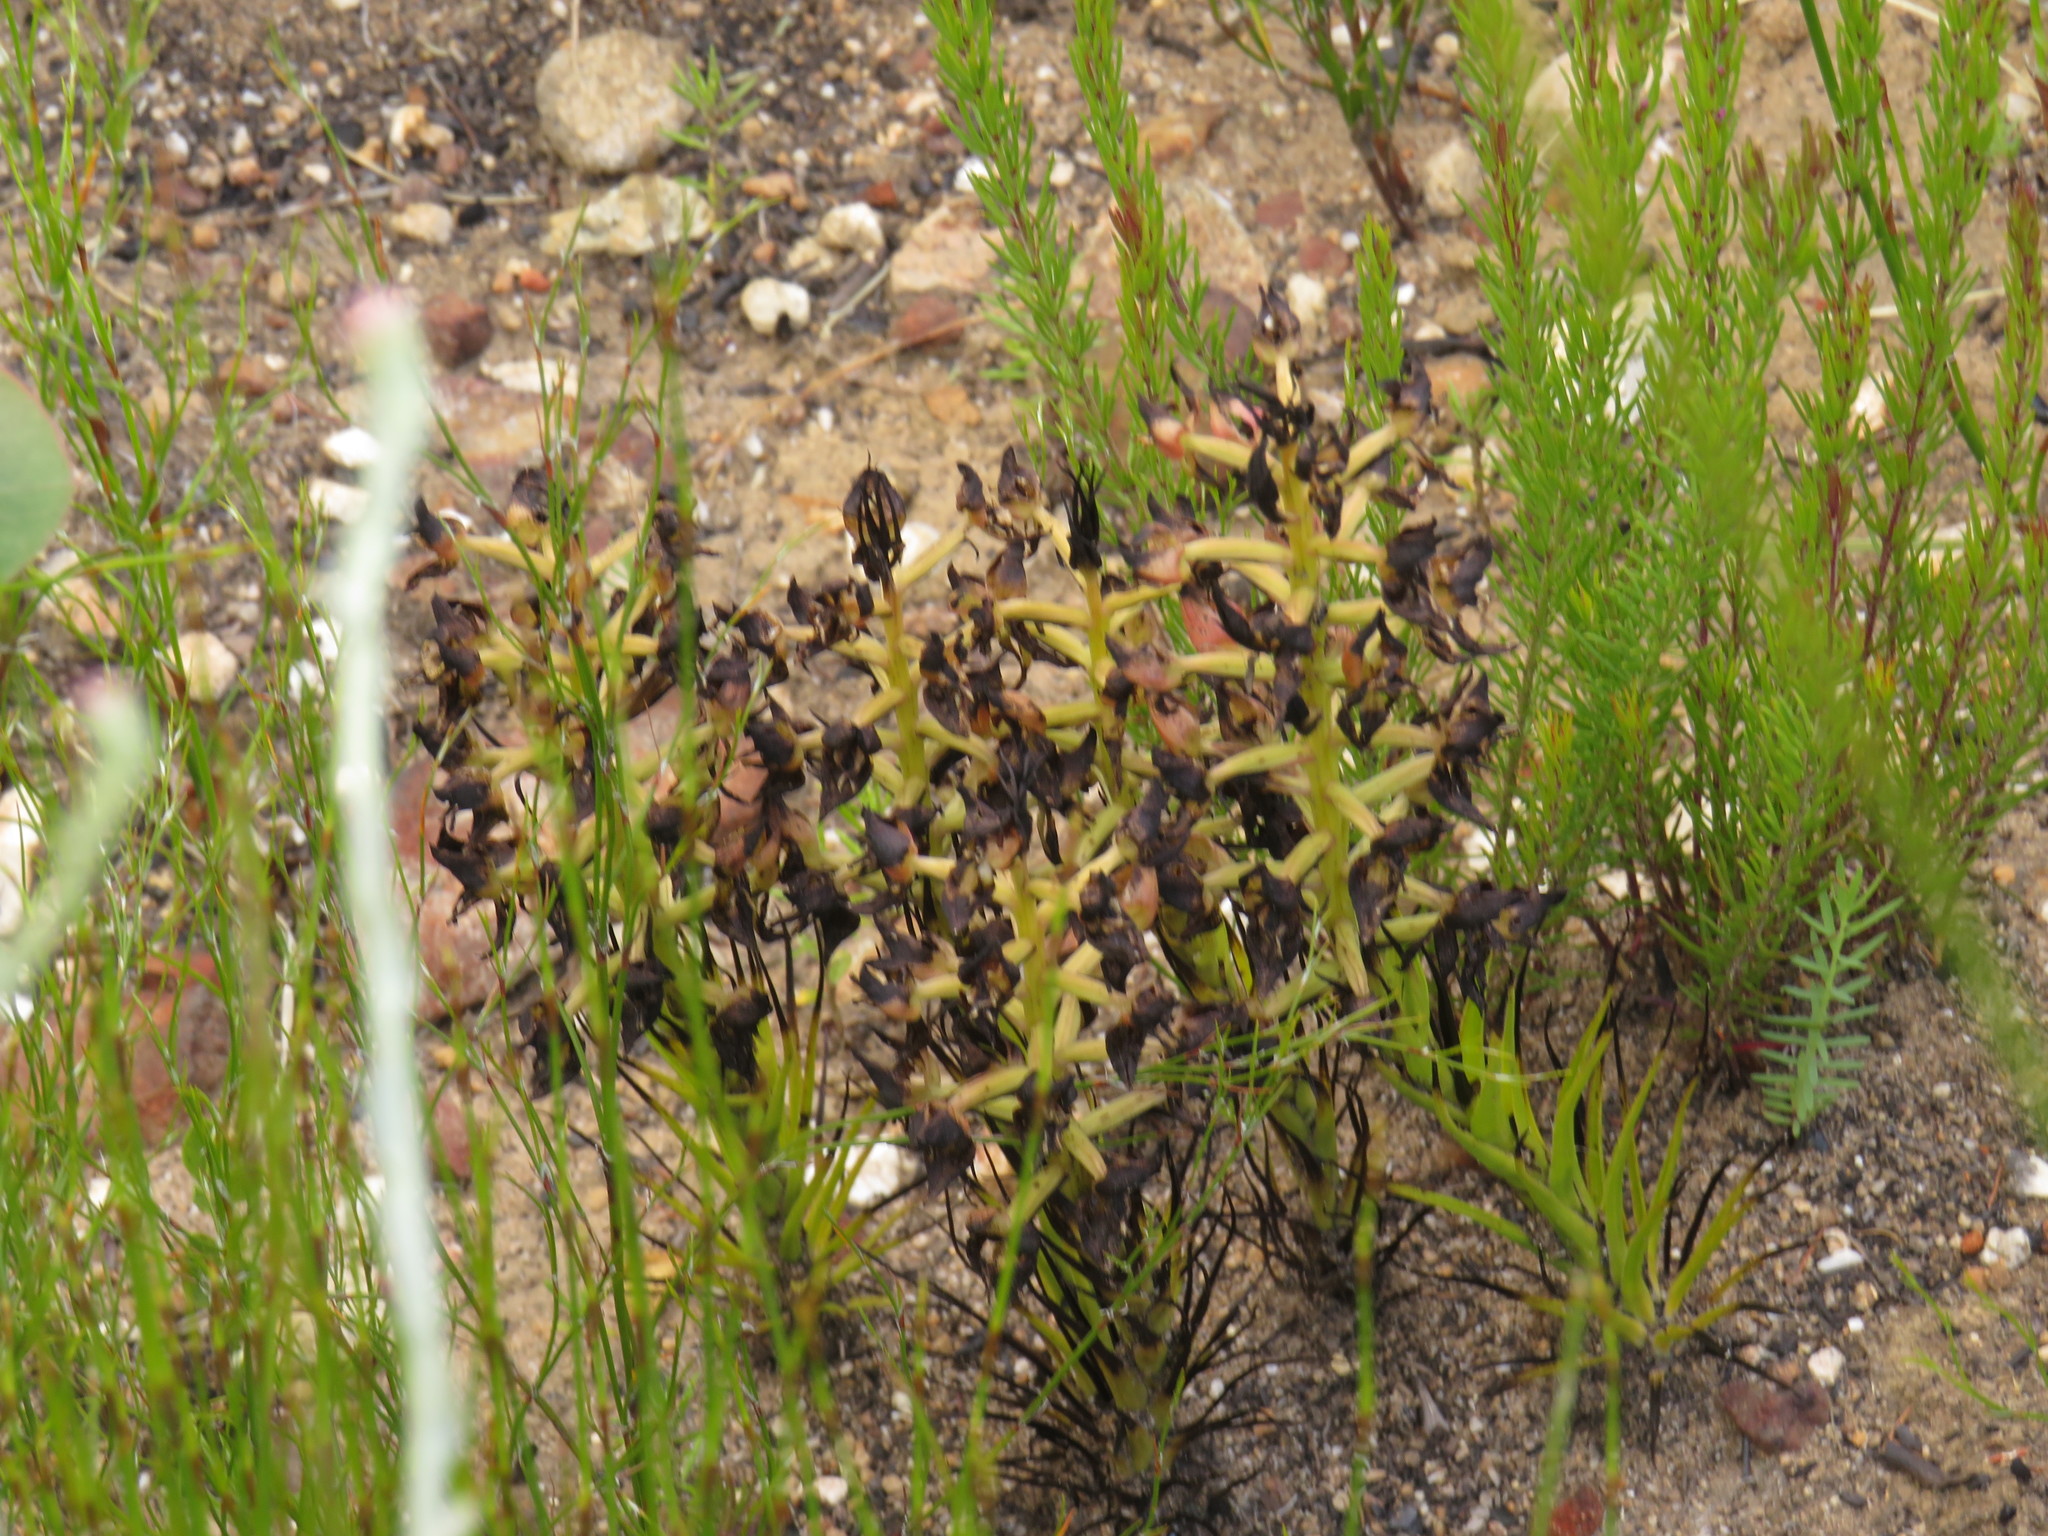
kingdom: Plantae
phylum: Tracheophyta
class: Liliopsida
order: Asparagales
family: Orchidaceae
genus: Ceratandra
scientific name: Ceratandra atrata
